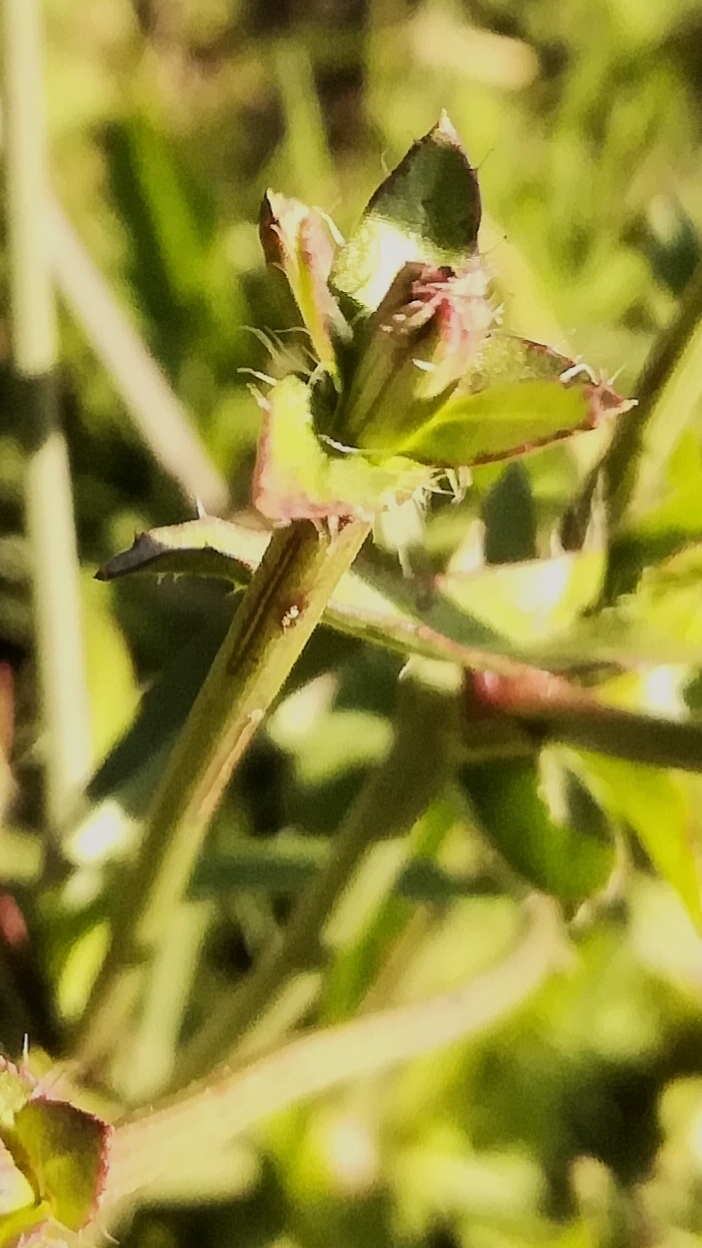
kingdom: Plantae
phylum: Tracheophyta
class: Magnoliopsida
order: Asterales
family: Asteraceae
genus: Cichorium
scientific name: Cichorium intybus
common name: Chicory
